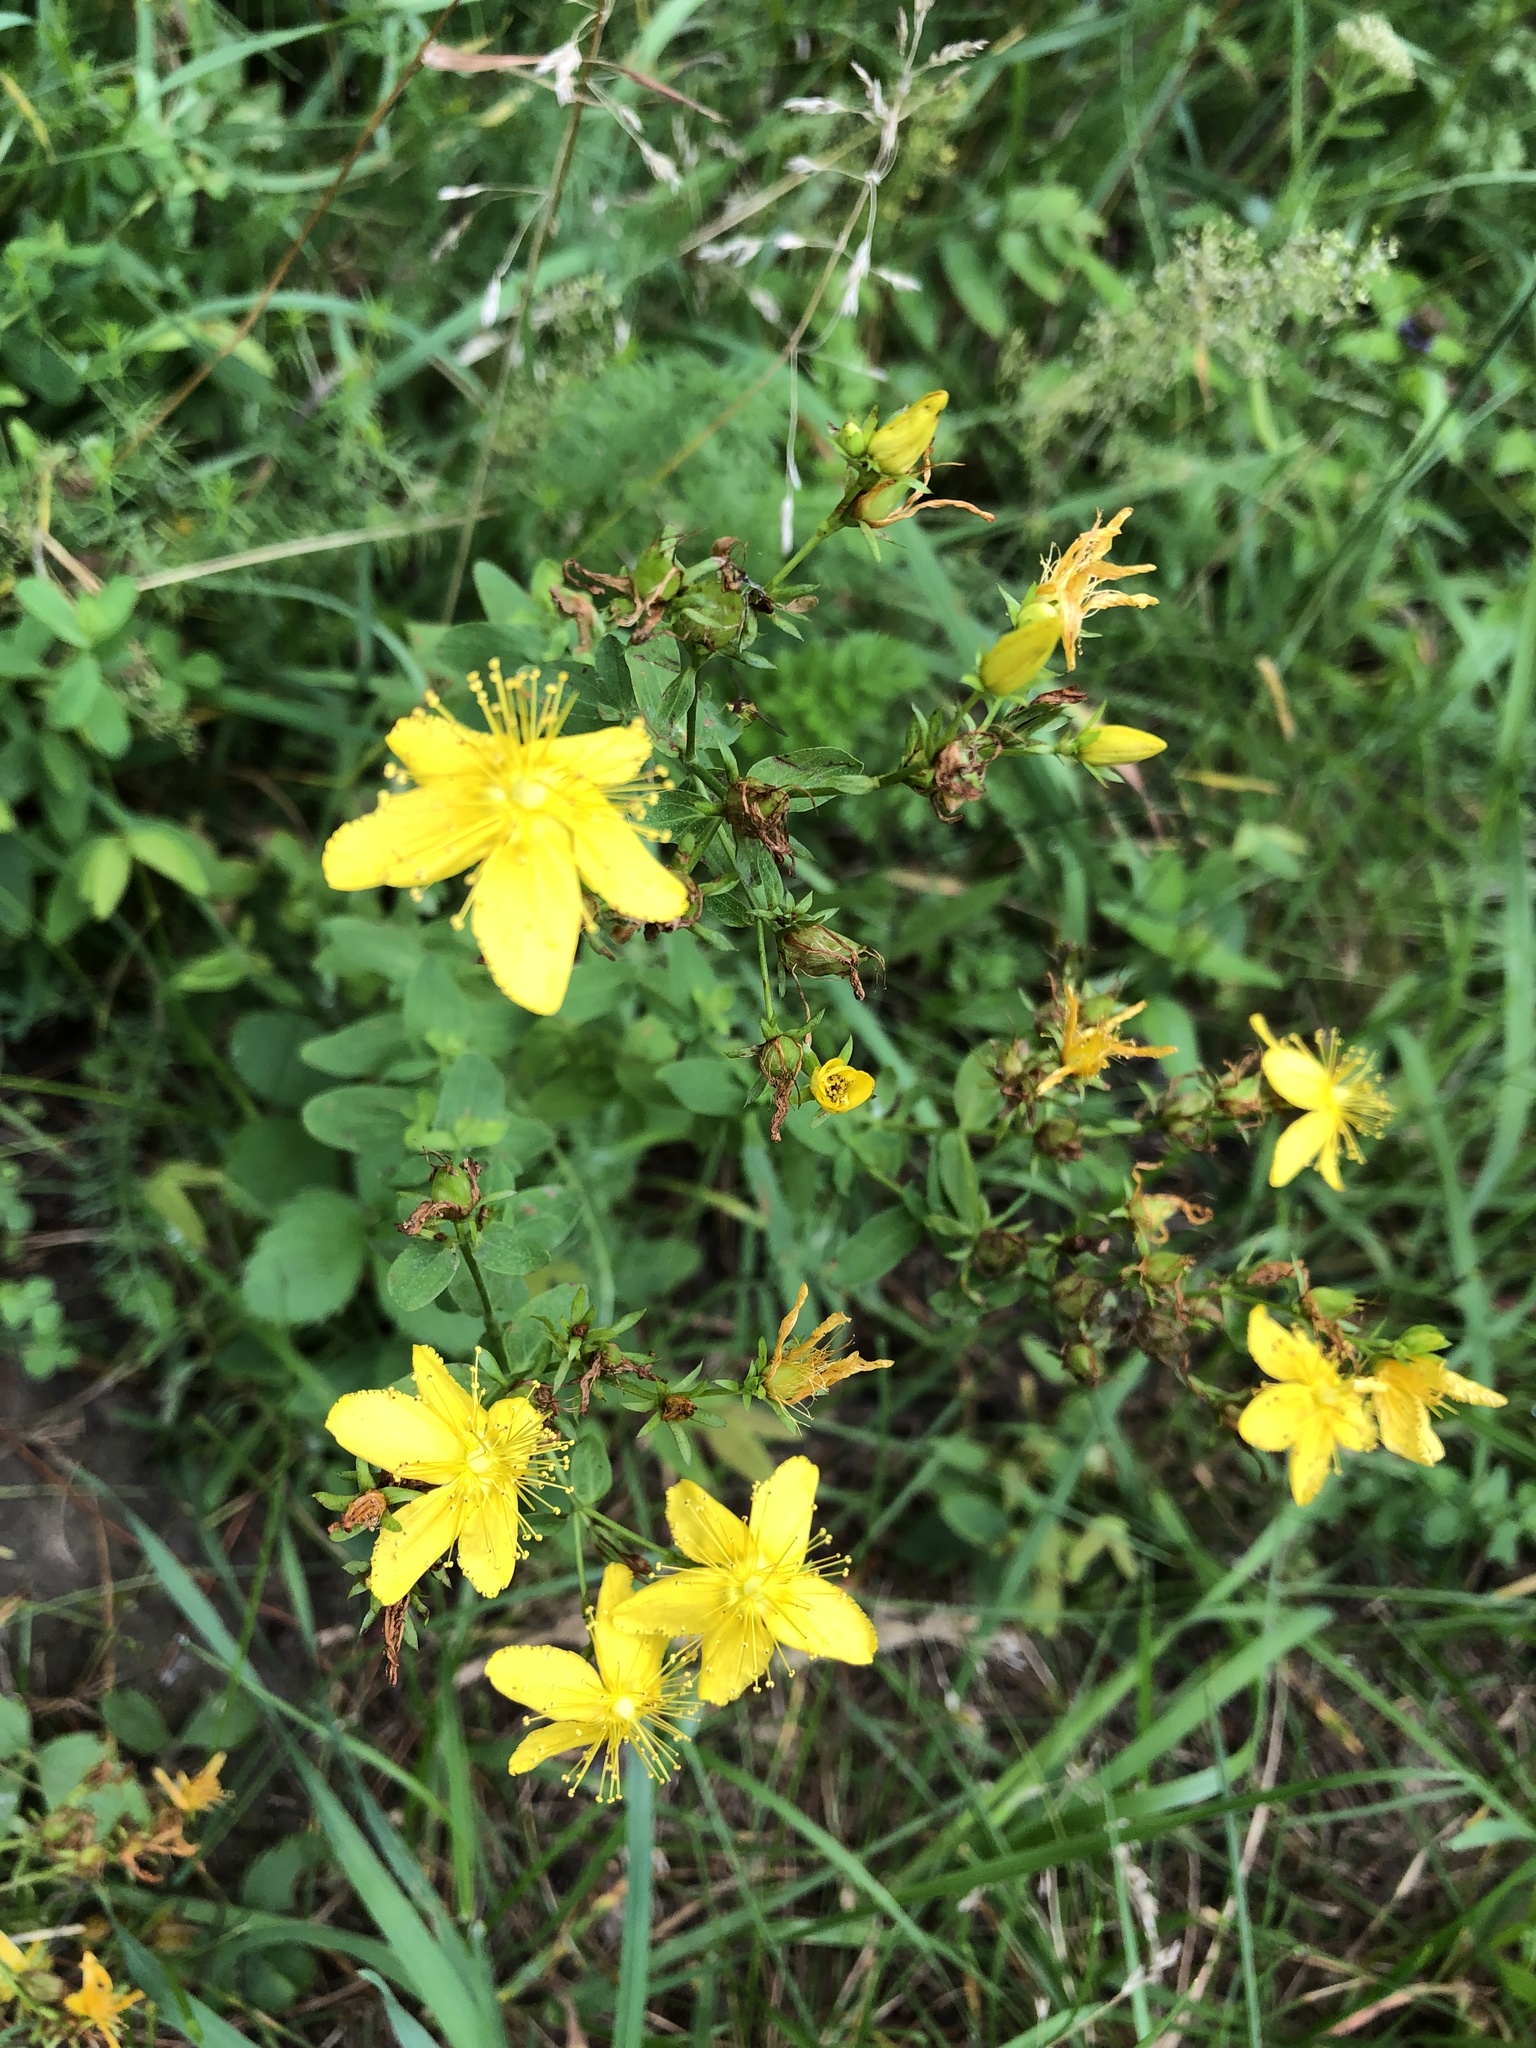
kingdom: Plantae
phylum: Tracheophyta
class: Magnoliopsida
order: Malpighiales
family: Hypericaceae
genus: Hypericum
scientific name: Hypericum perforatum
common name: Common st. johnswort
